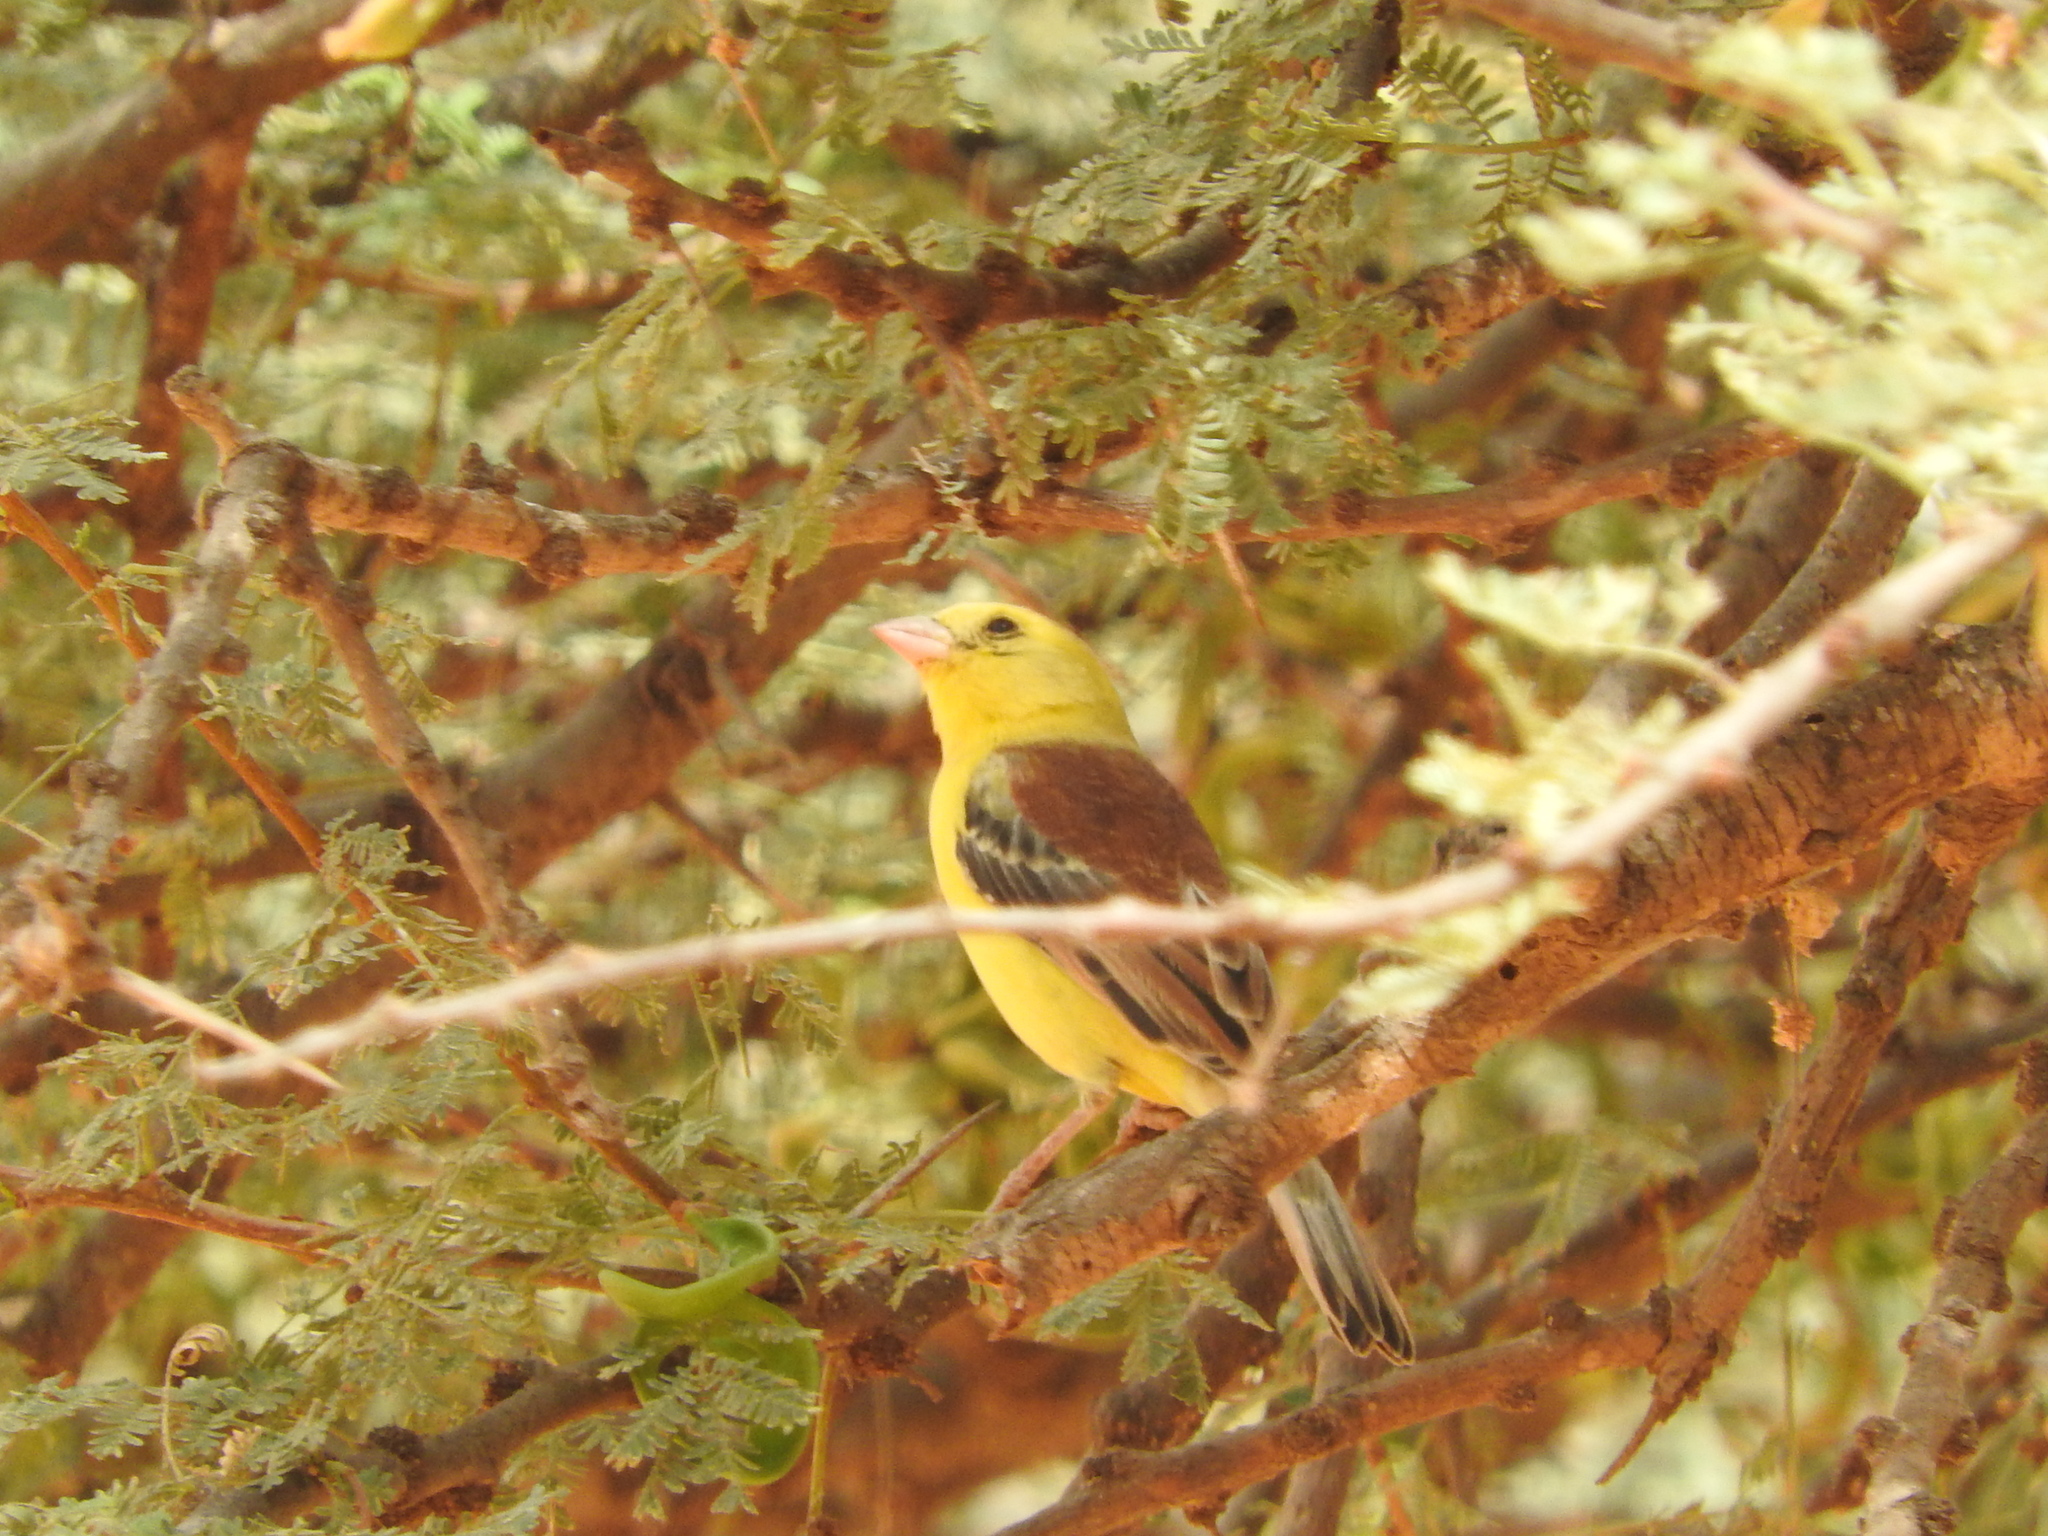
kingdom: Animalia
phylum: Chordata
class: Aves
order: Passeriformes
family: Passeridae
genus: Passer
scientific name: Passer luteus
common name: Sudan golden sparrow
